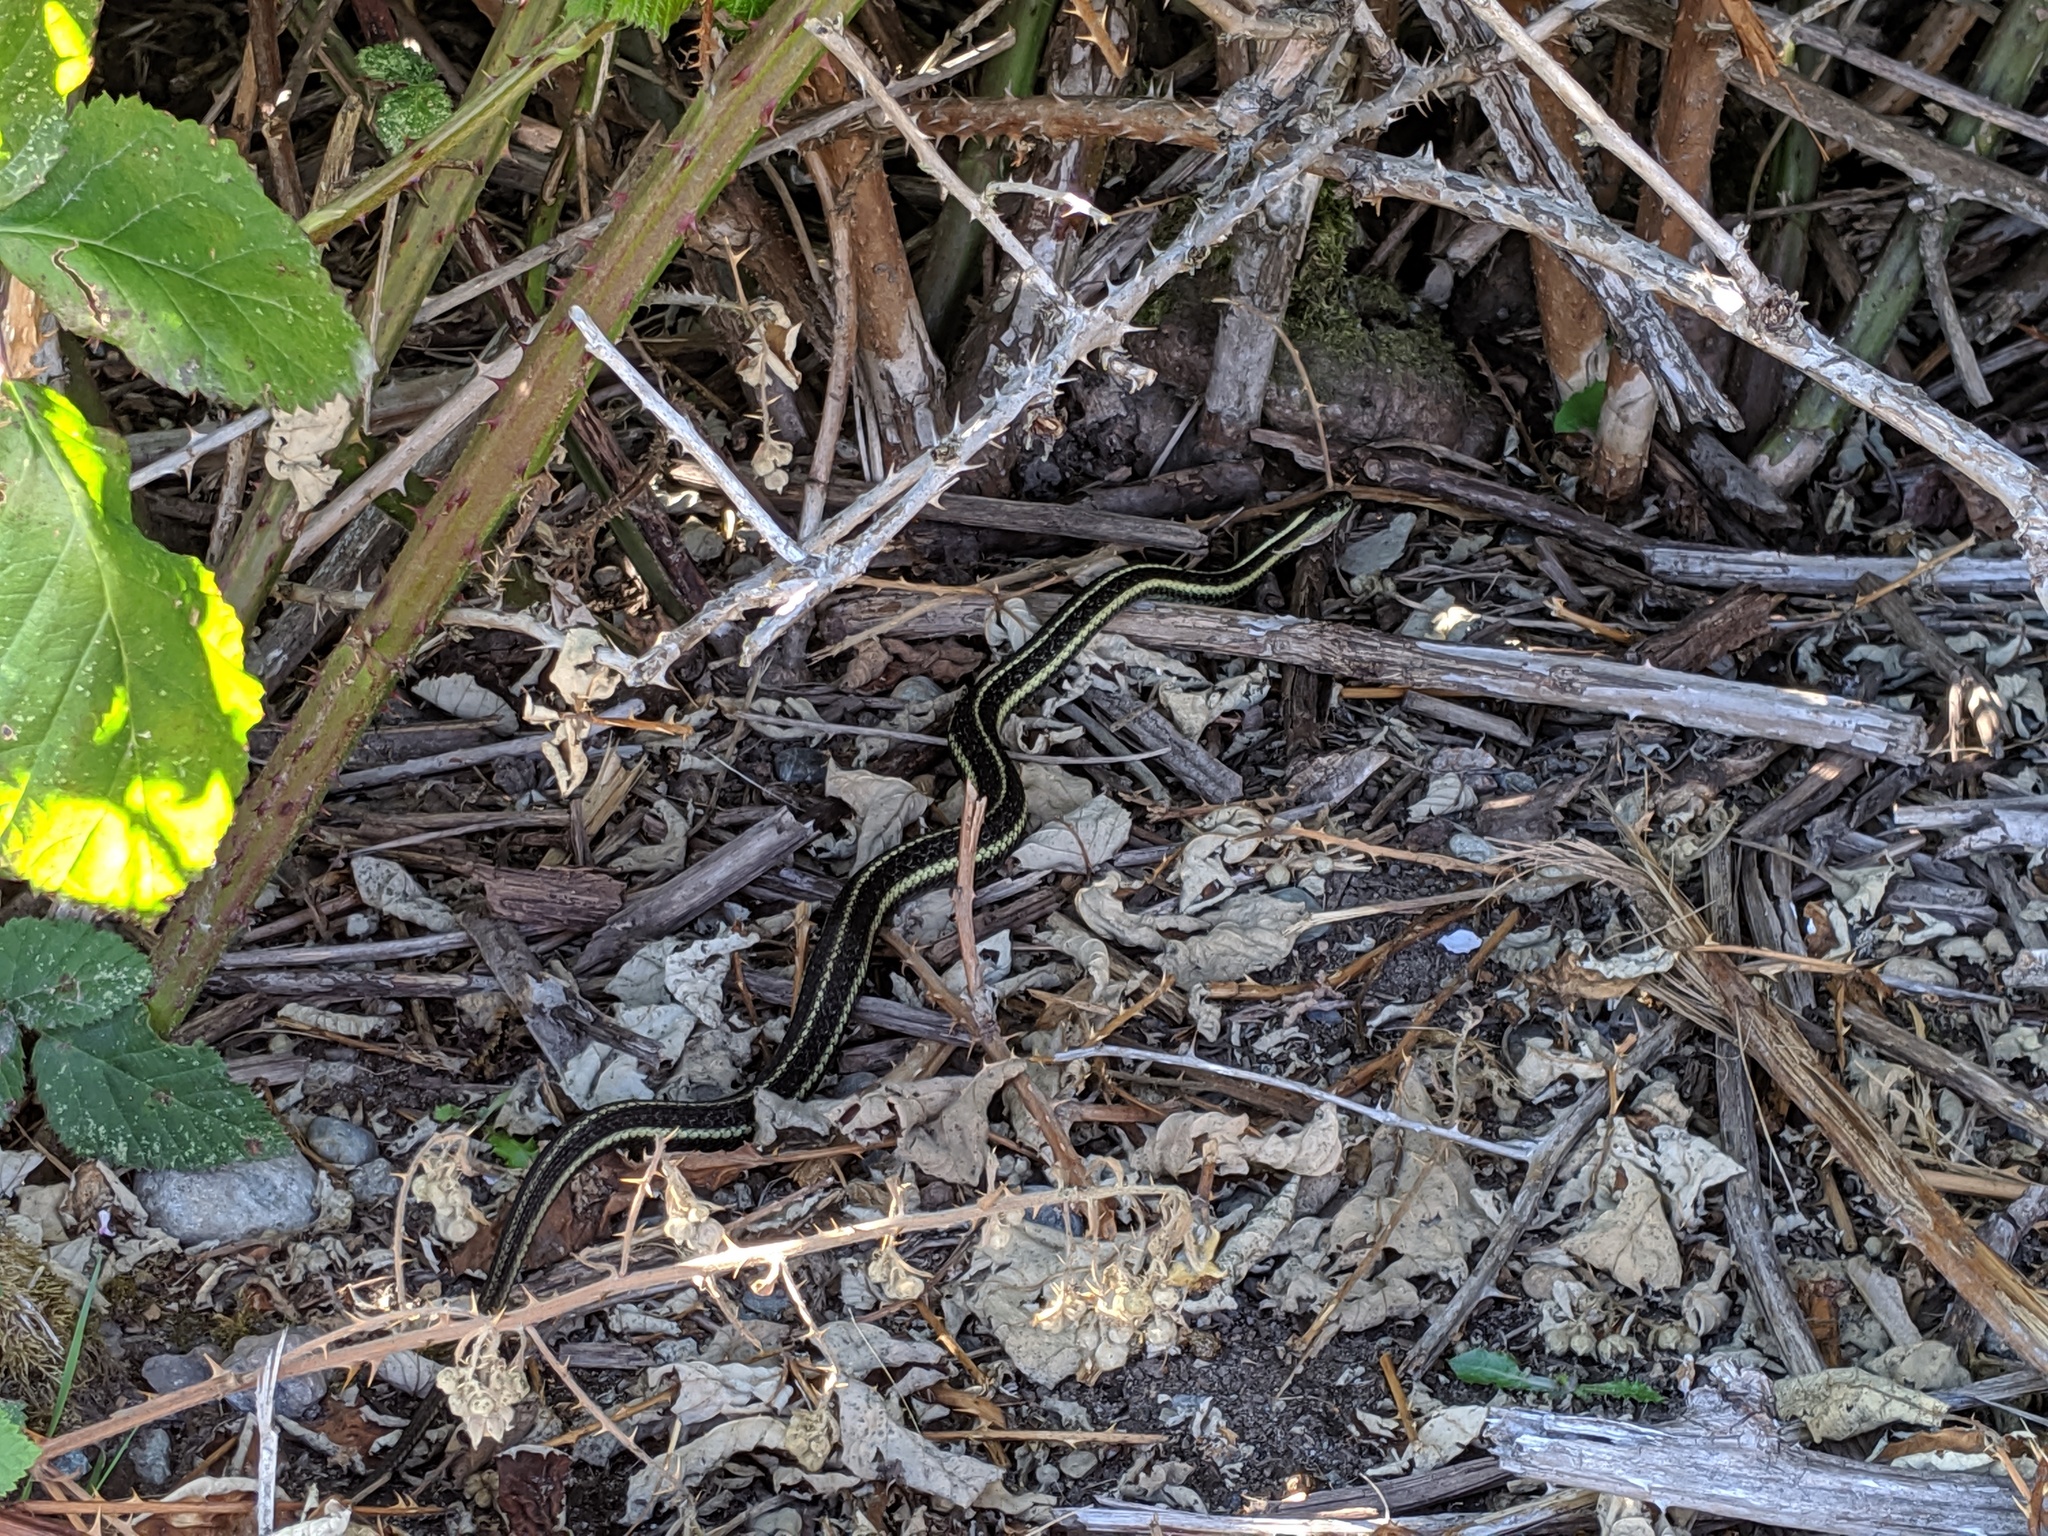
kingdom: Animalia
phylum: Chordata
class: Squamata
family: Colubridae
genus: Thamnophis
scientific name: Thamnophis ordinoides
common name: Northwestern garter snake
